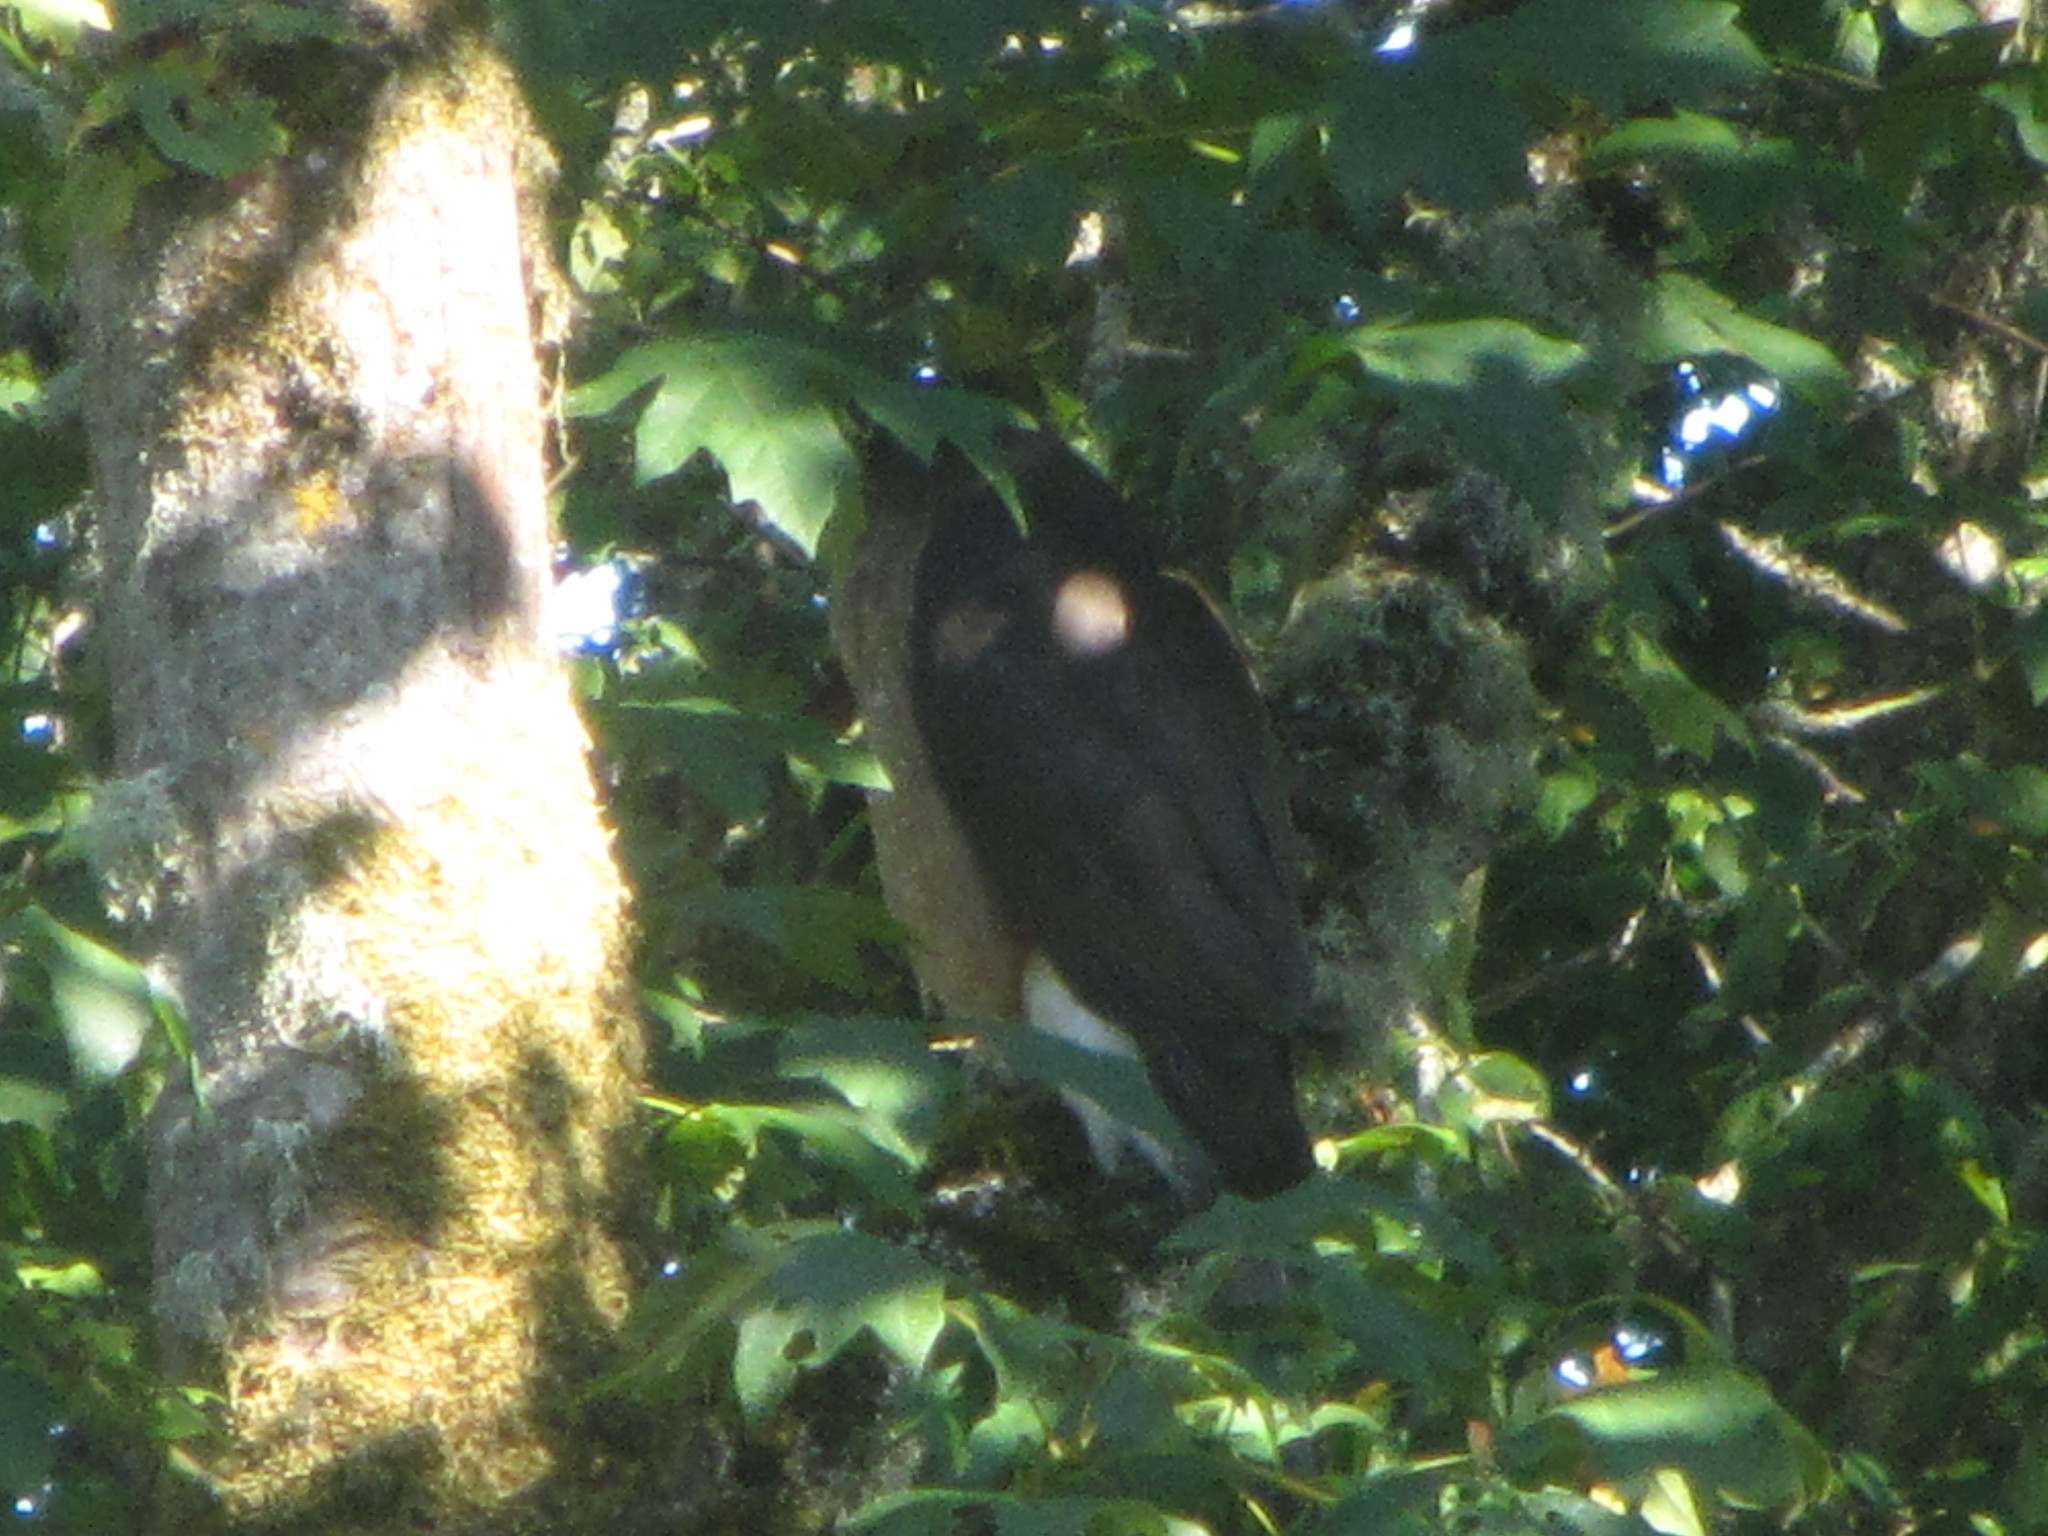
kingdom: Animalia
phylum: Chordata
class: Aves
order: Accipitriformes
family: Accipitridae
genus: Accipiter
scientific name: Accipiter cooperii
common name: Cooper's hawk
